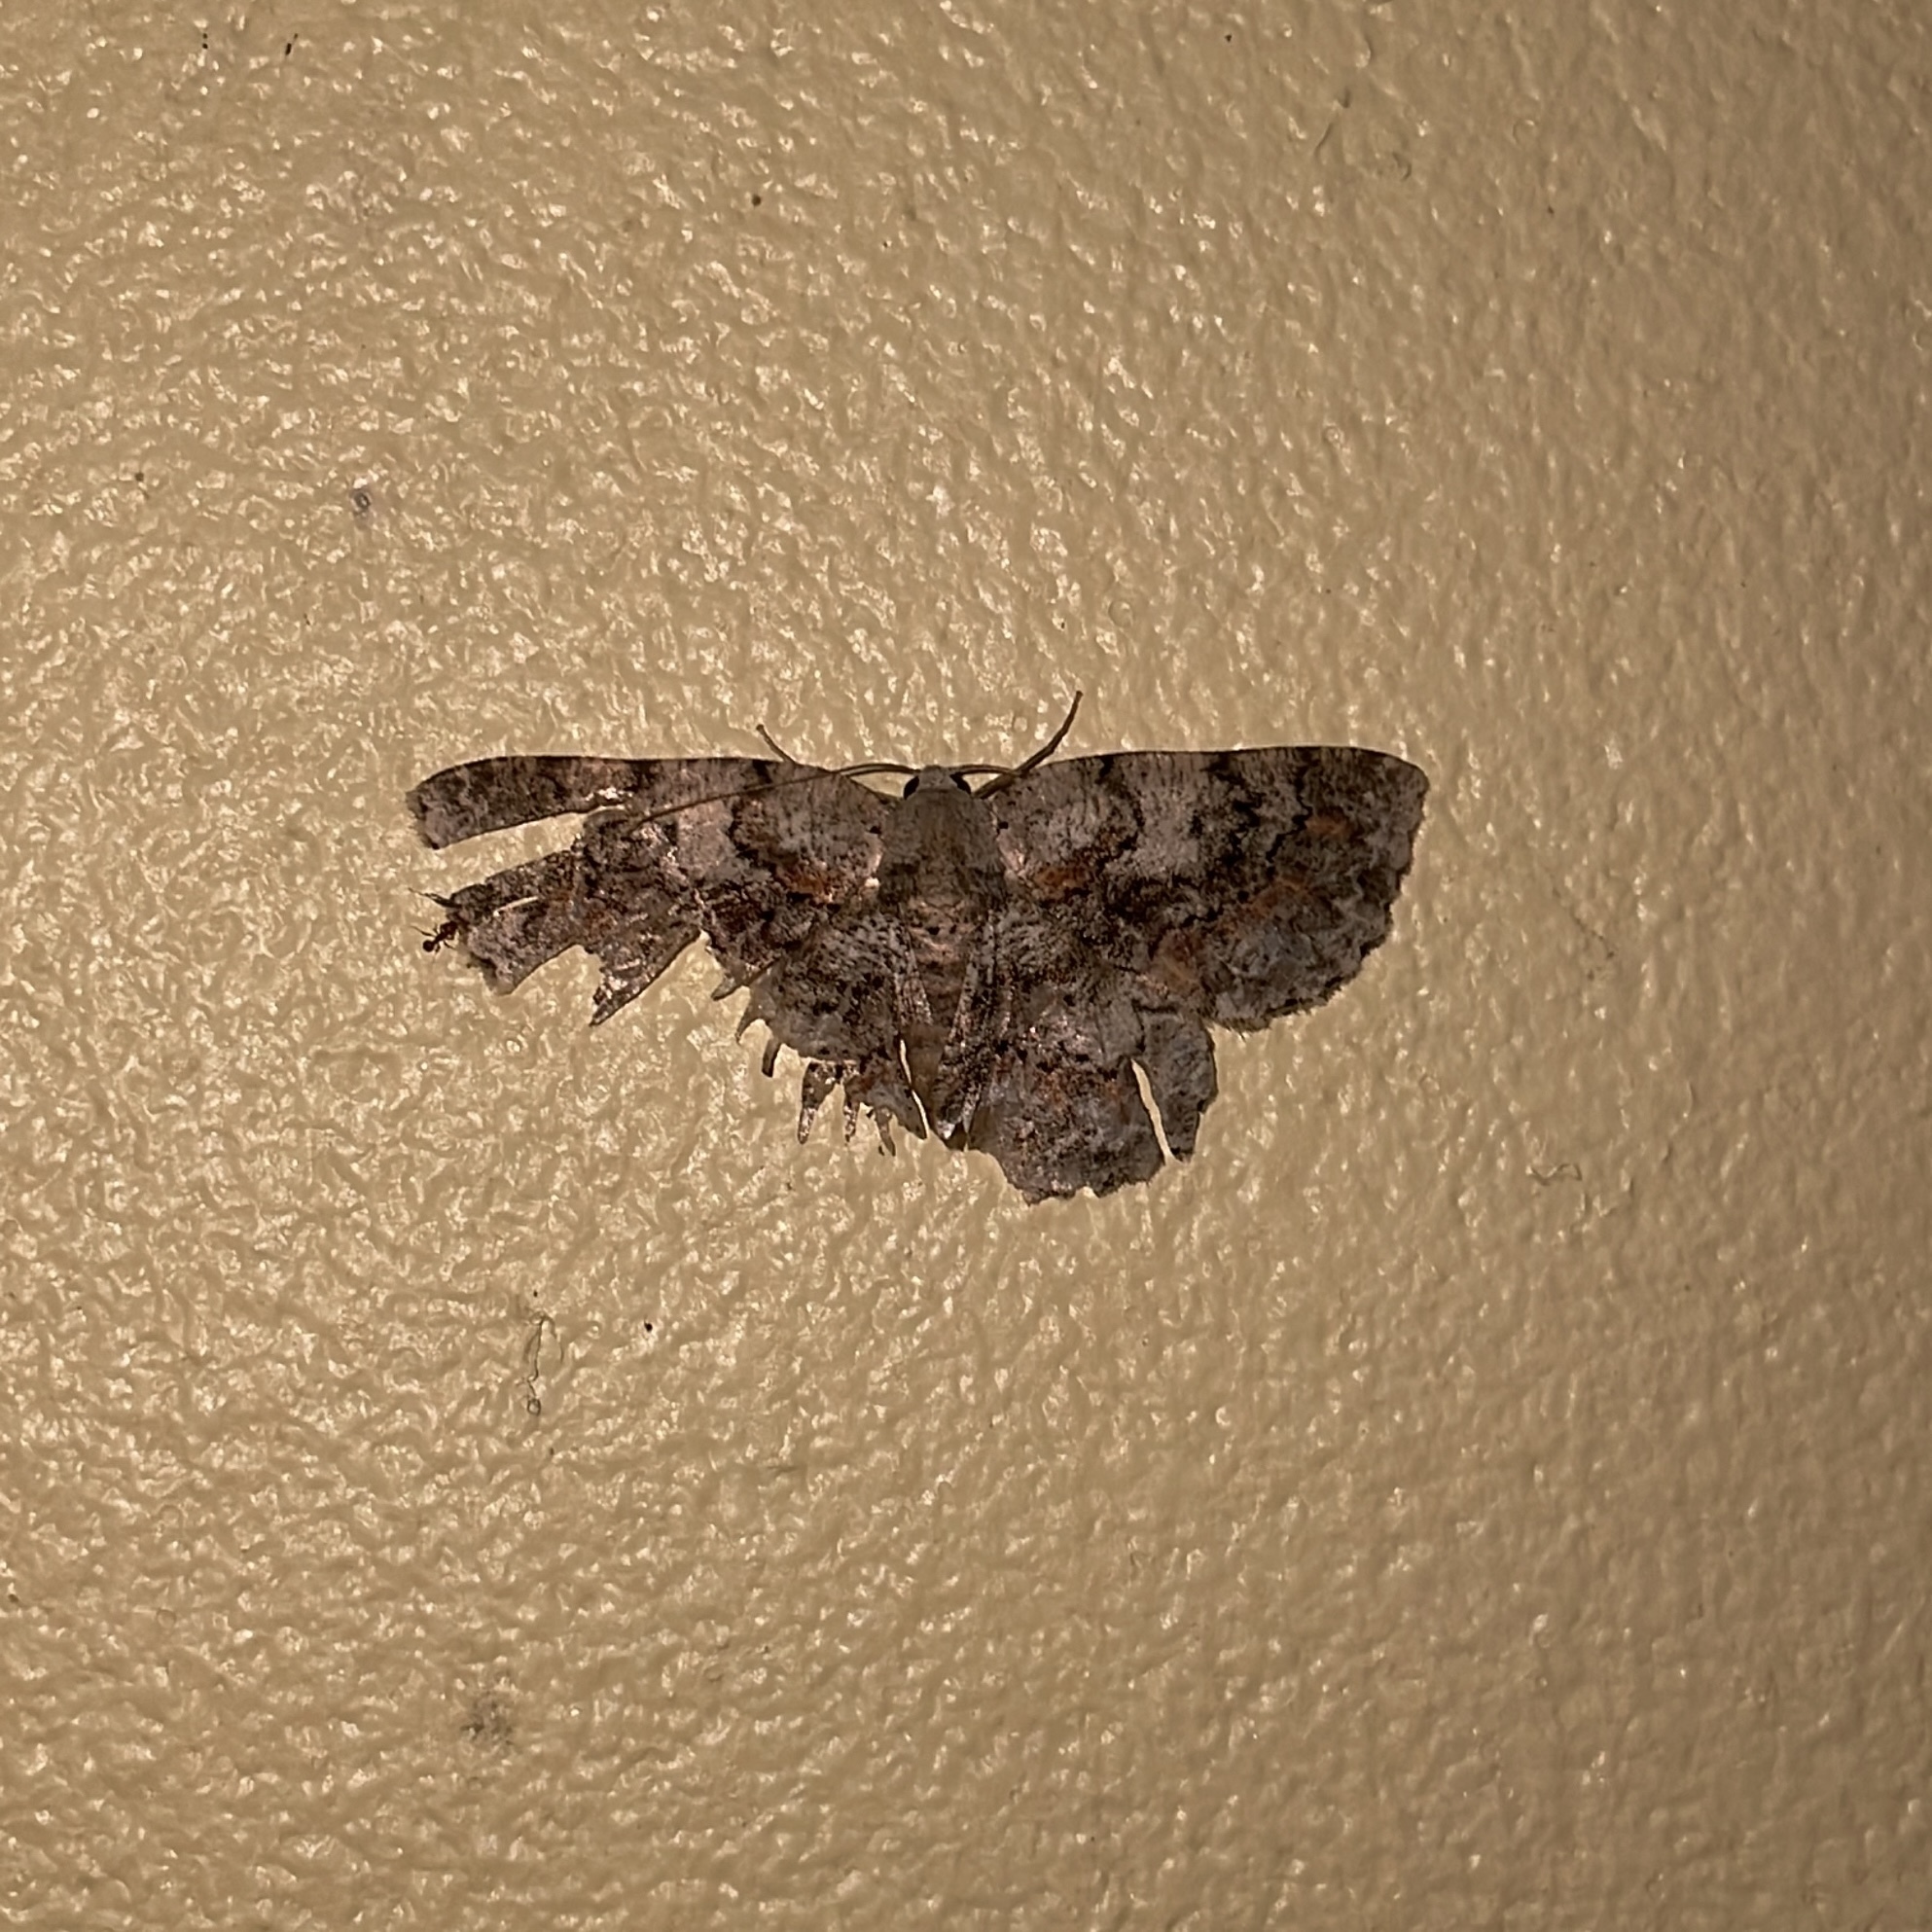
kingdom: Animalia
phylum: Arthropoda
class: Insecta
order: Lepidoptera
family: Geometridae
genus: Bryoptera
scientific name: Bryoptera hypomelas
